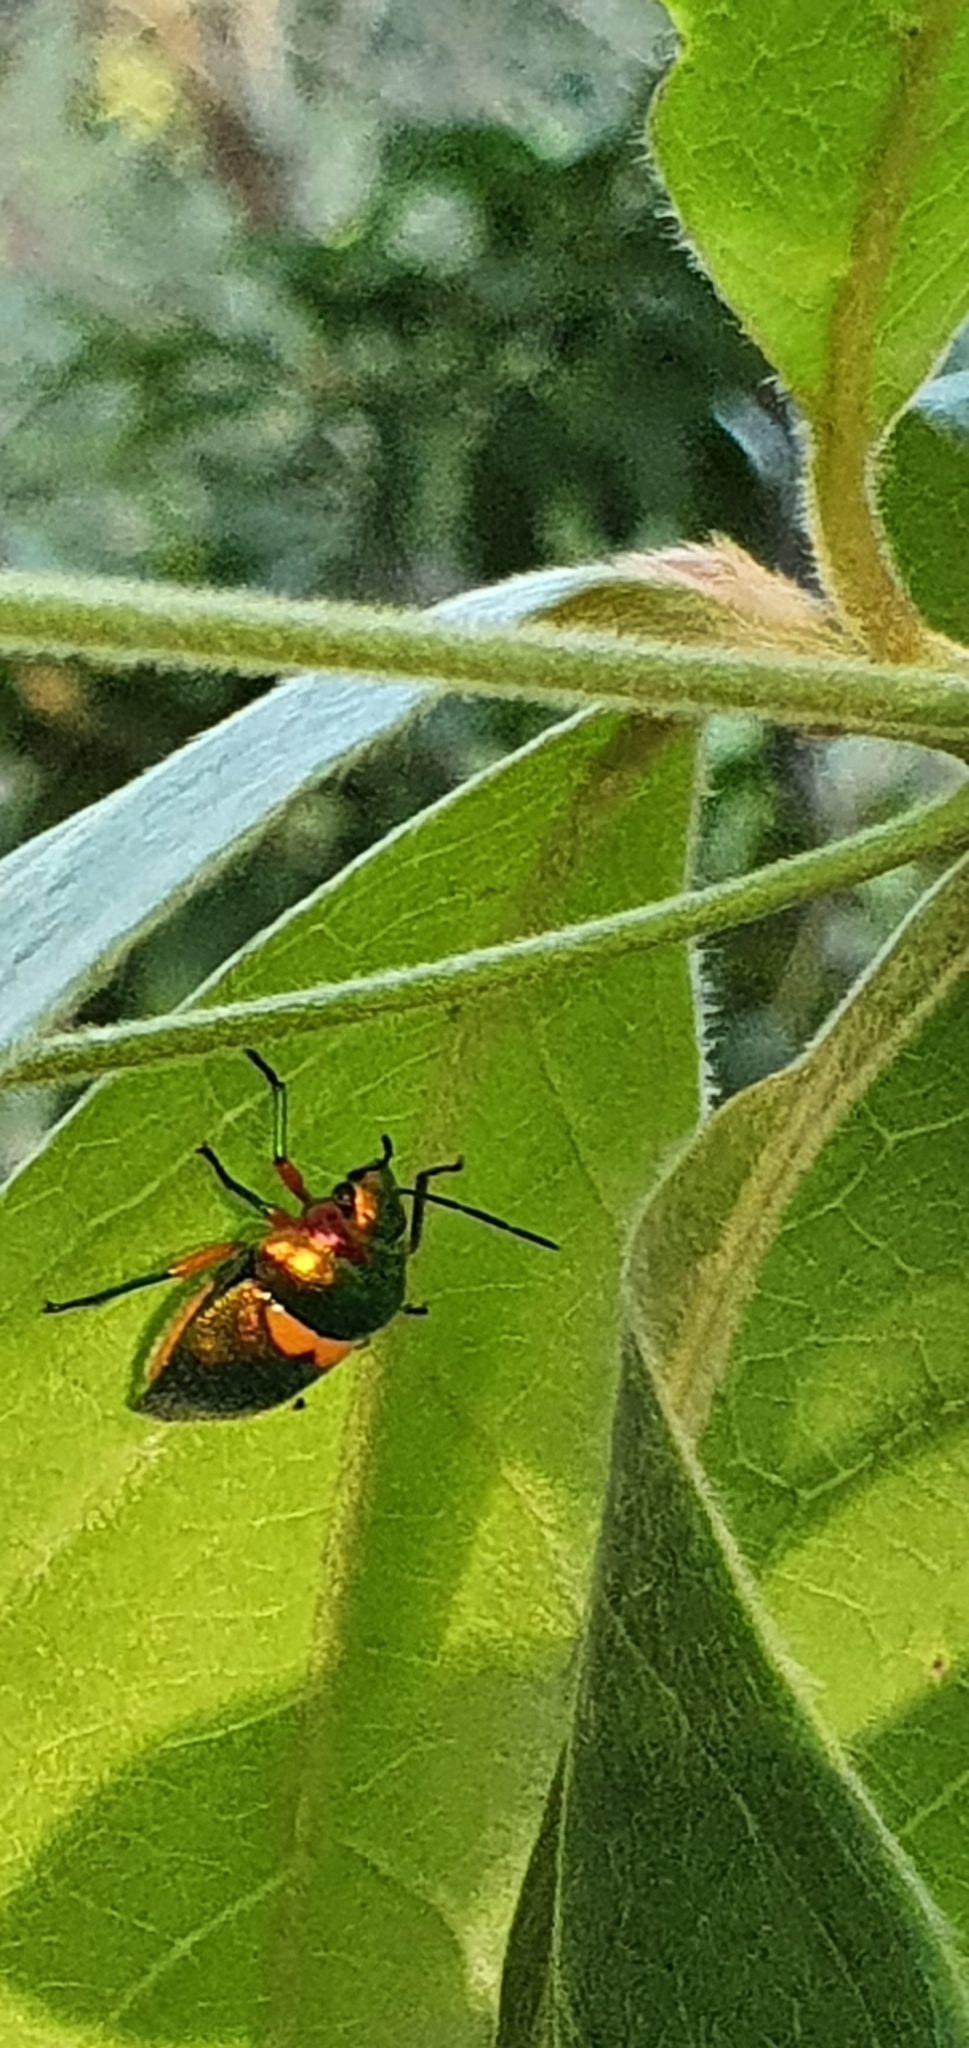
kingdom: Animalia
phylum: Arthropoda
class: Insecta
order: Hemiptera
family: Scutelleridae
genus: Lampromicra
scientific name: Lampromicra senator
